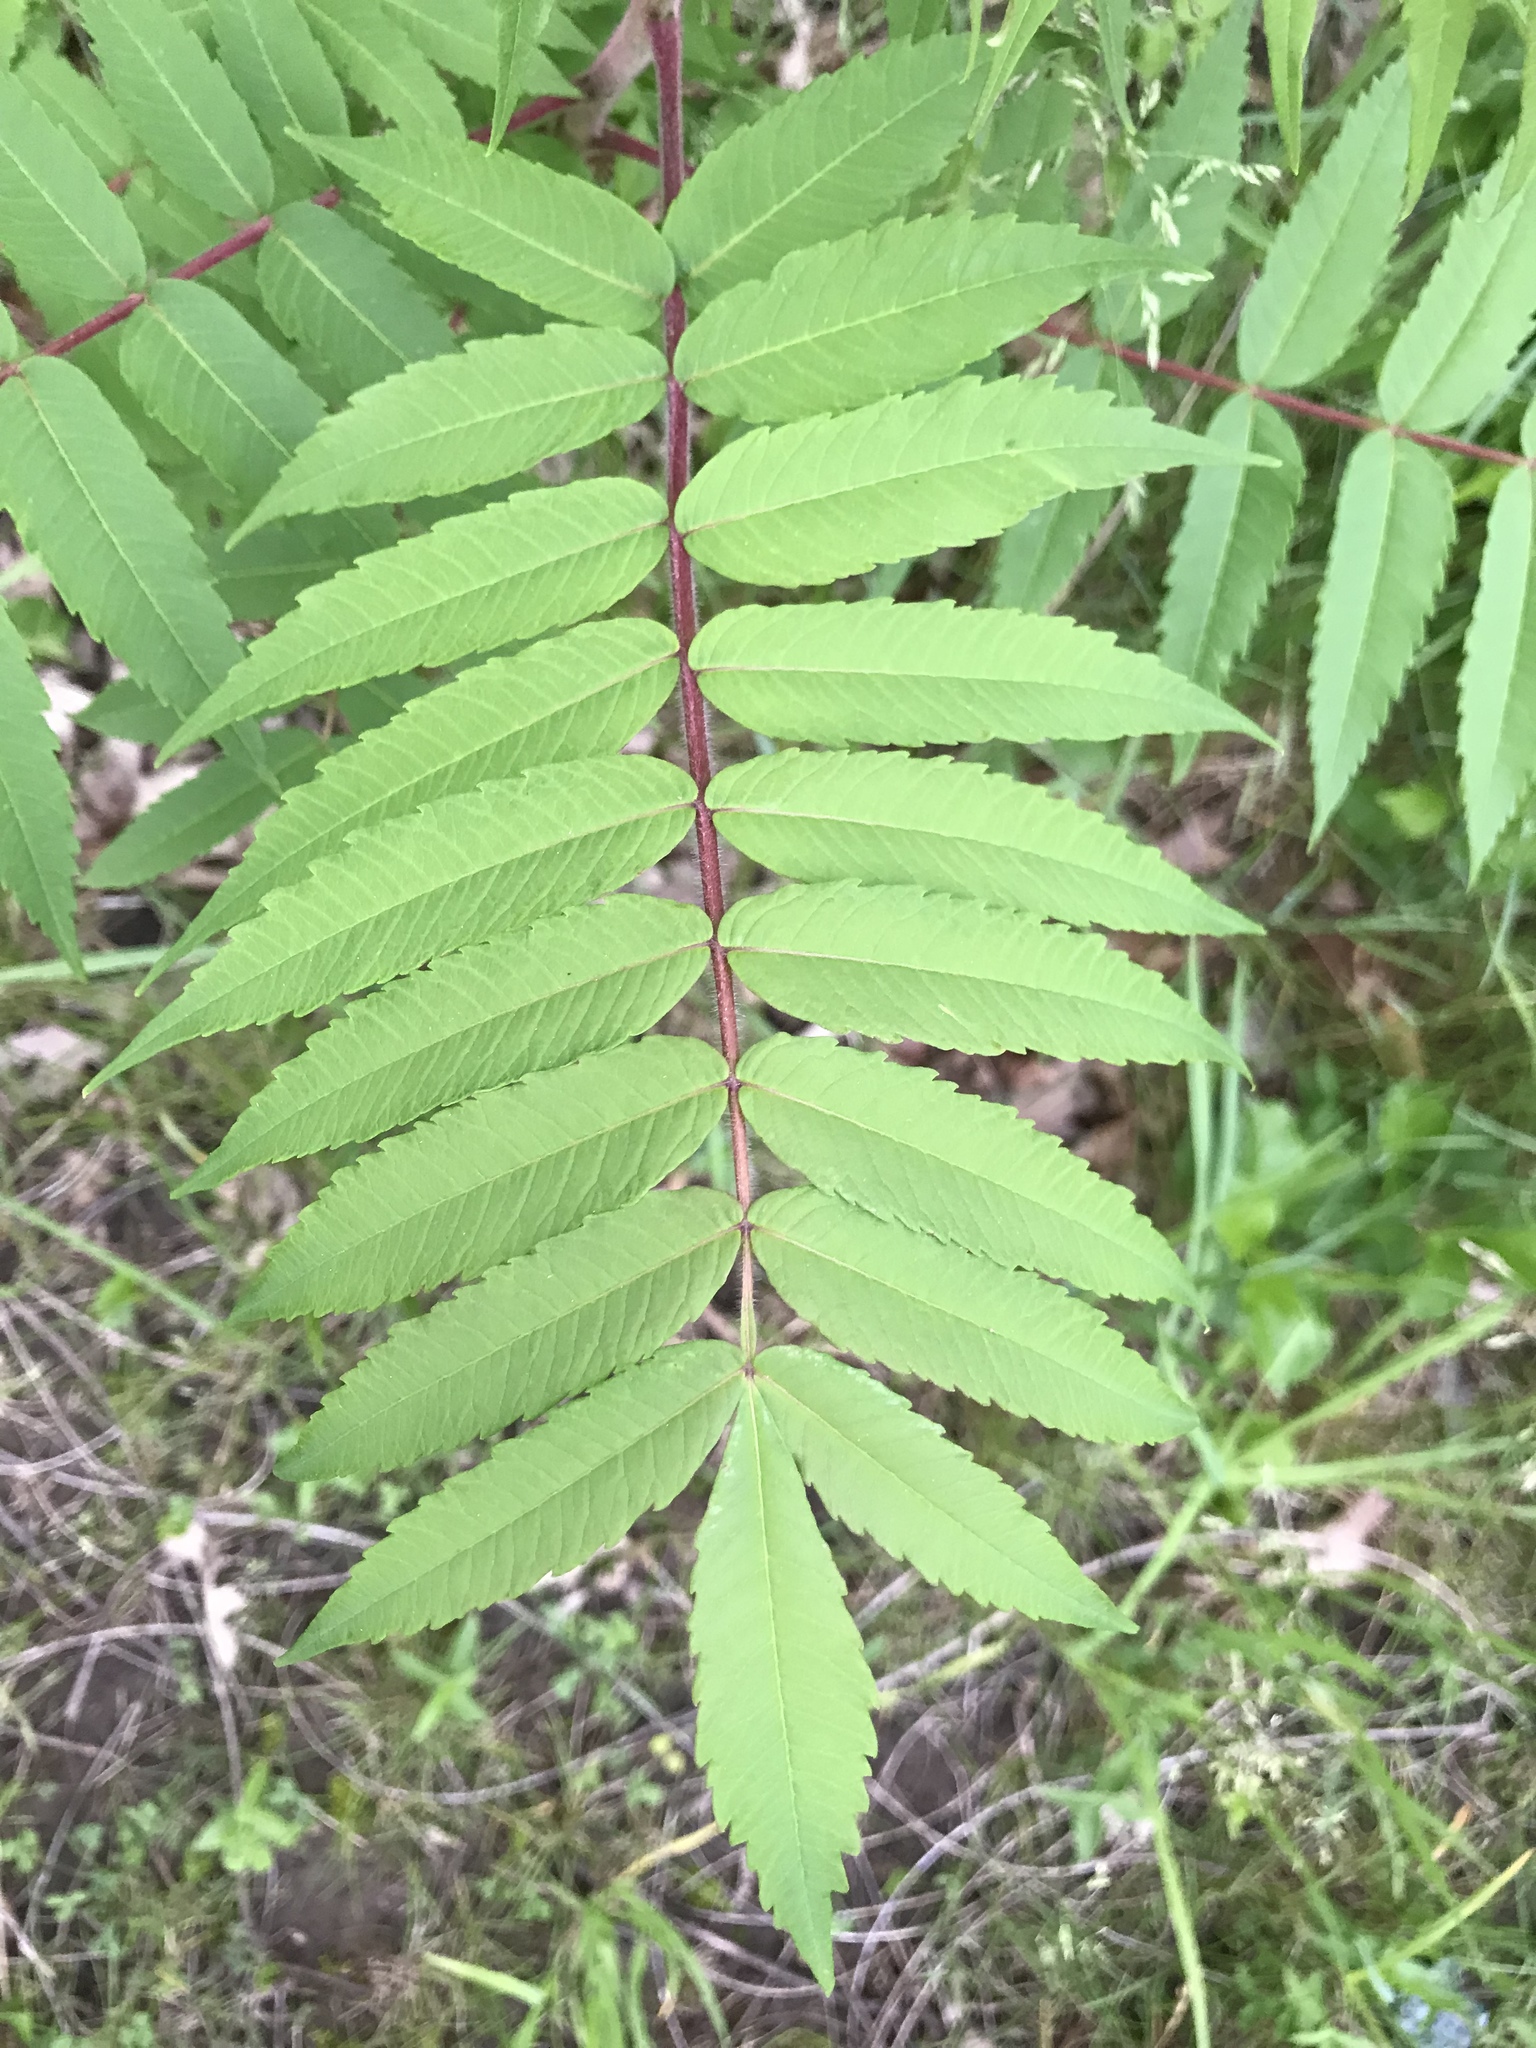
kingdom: Plantae
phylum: Tracheophyta
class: Magnoliopsida
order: Sapindales
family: Anacardiaceae
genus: Rhus
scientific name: Rhus typhina
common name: Staghorn sumac
